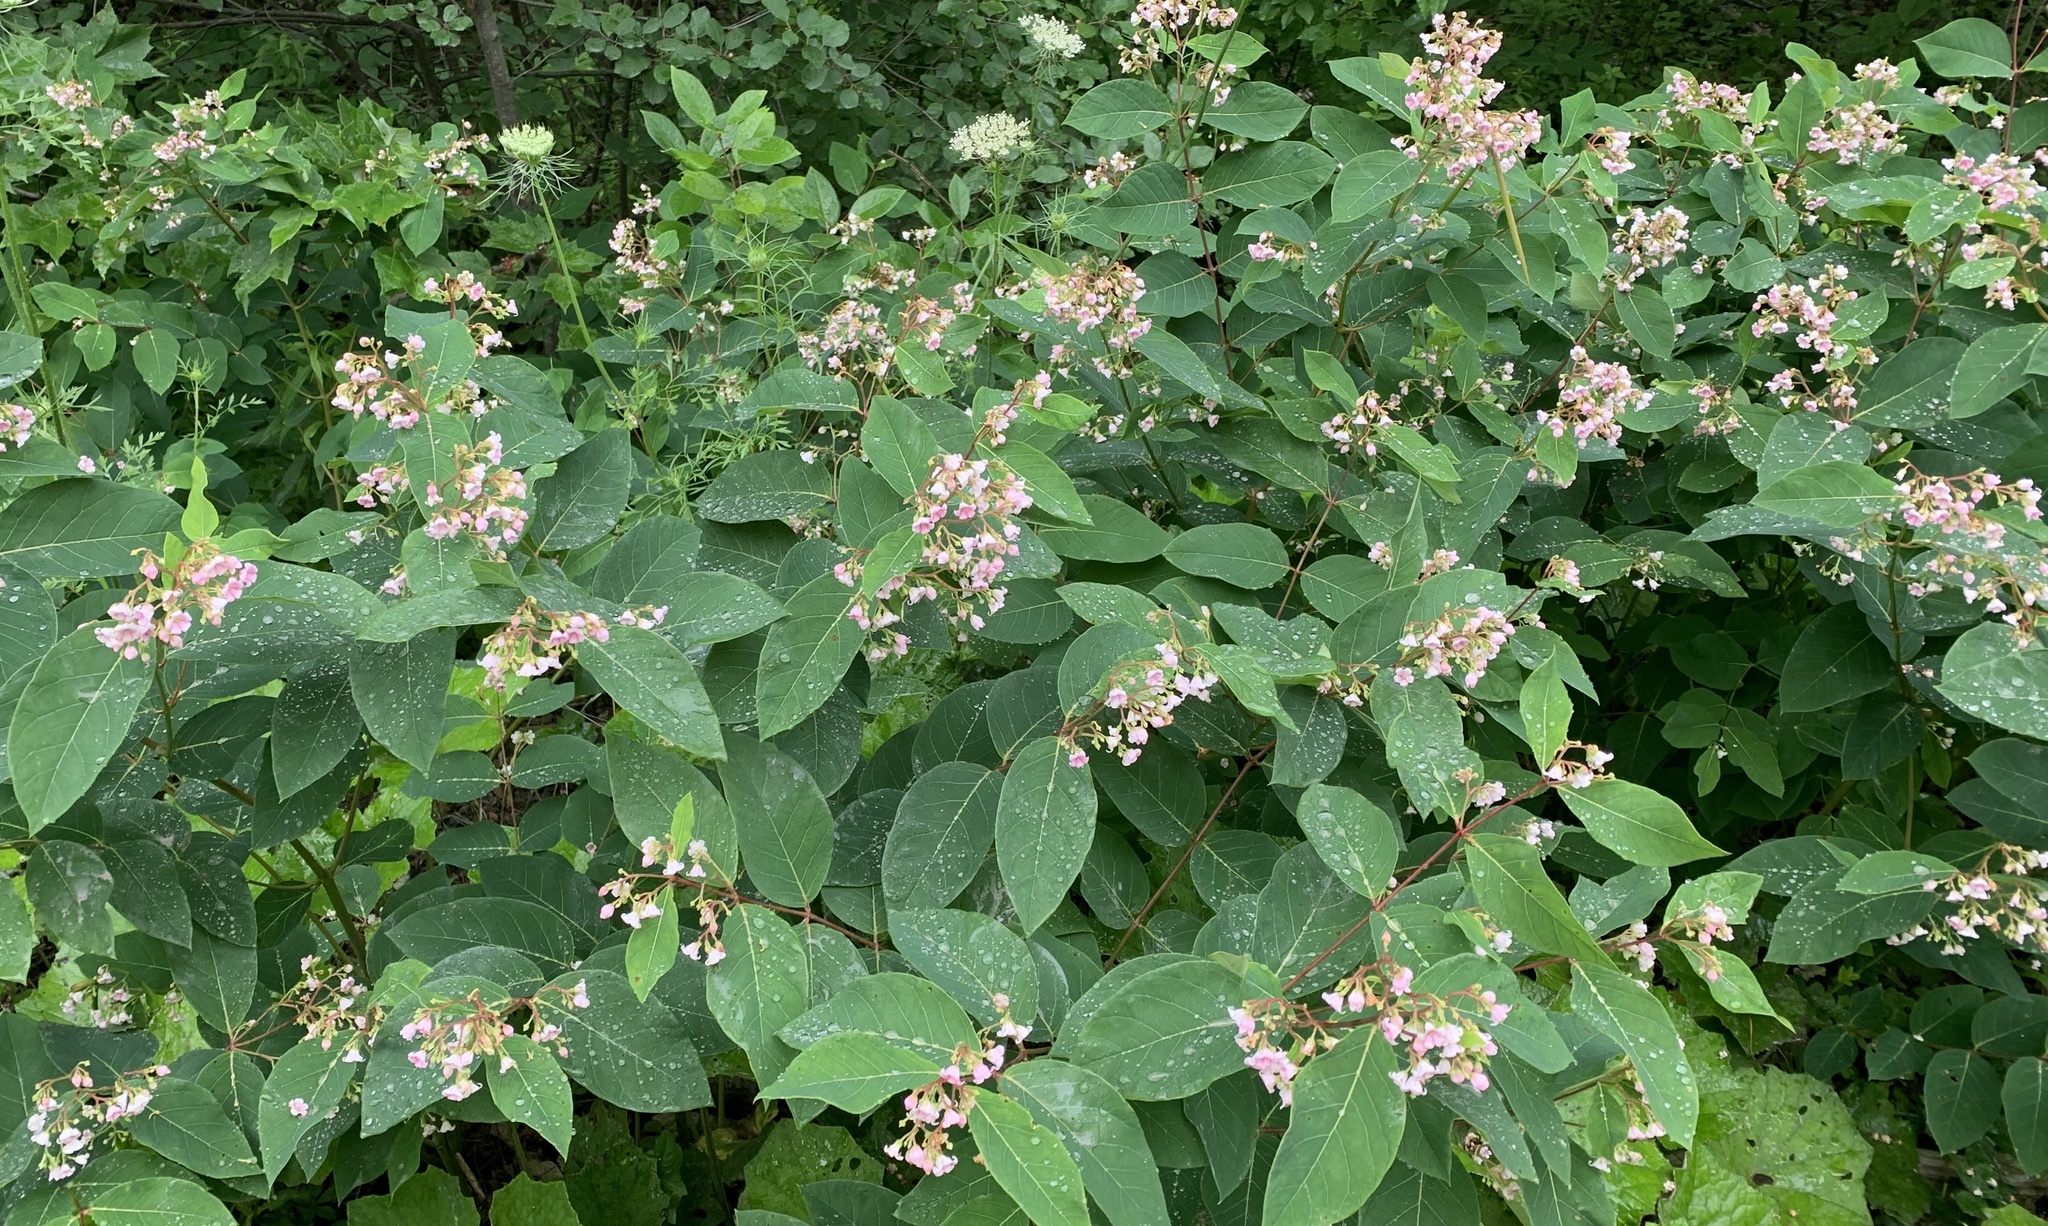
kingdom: Plantae
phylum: Tracheophyta
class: Magnoliopsida
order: Gentianales
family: Apocynaceae
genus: Apocynum
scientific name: Apocynum androsaemifolium
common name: Spreading dogbane
